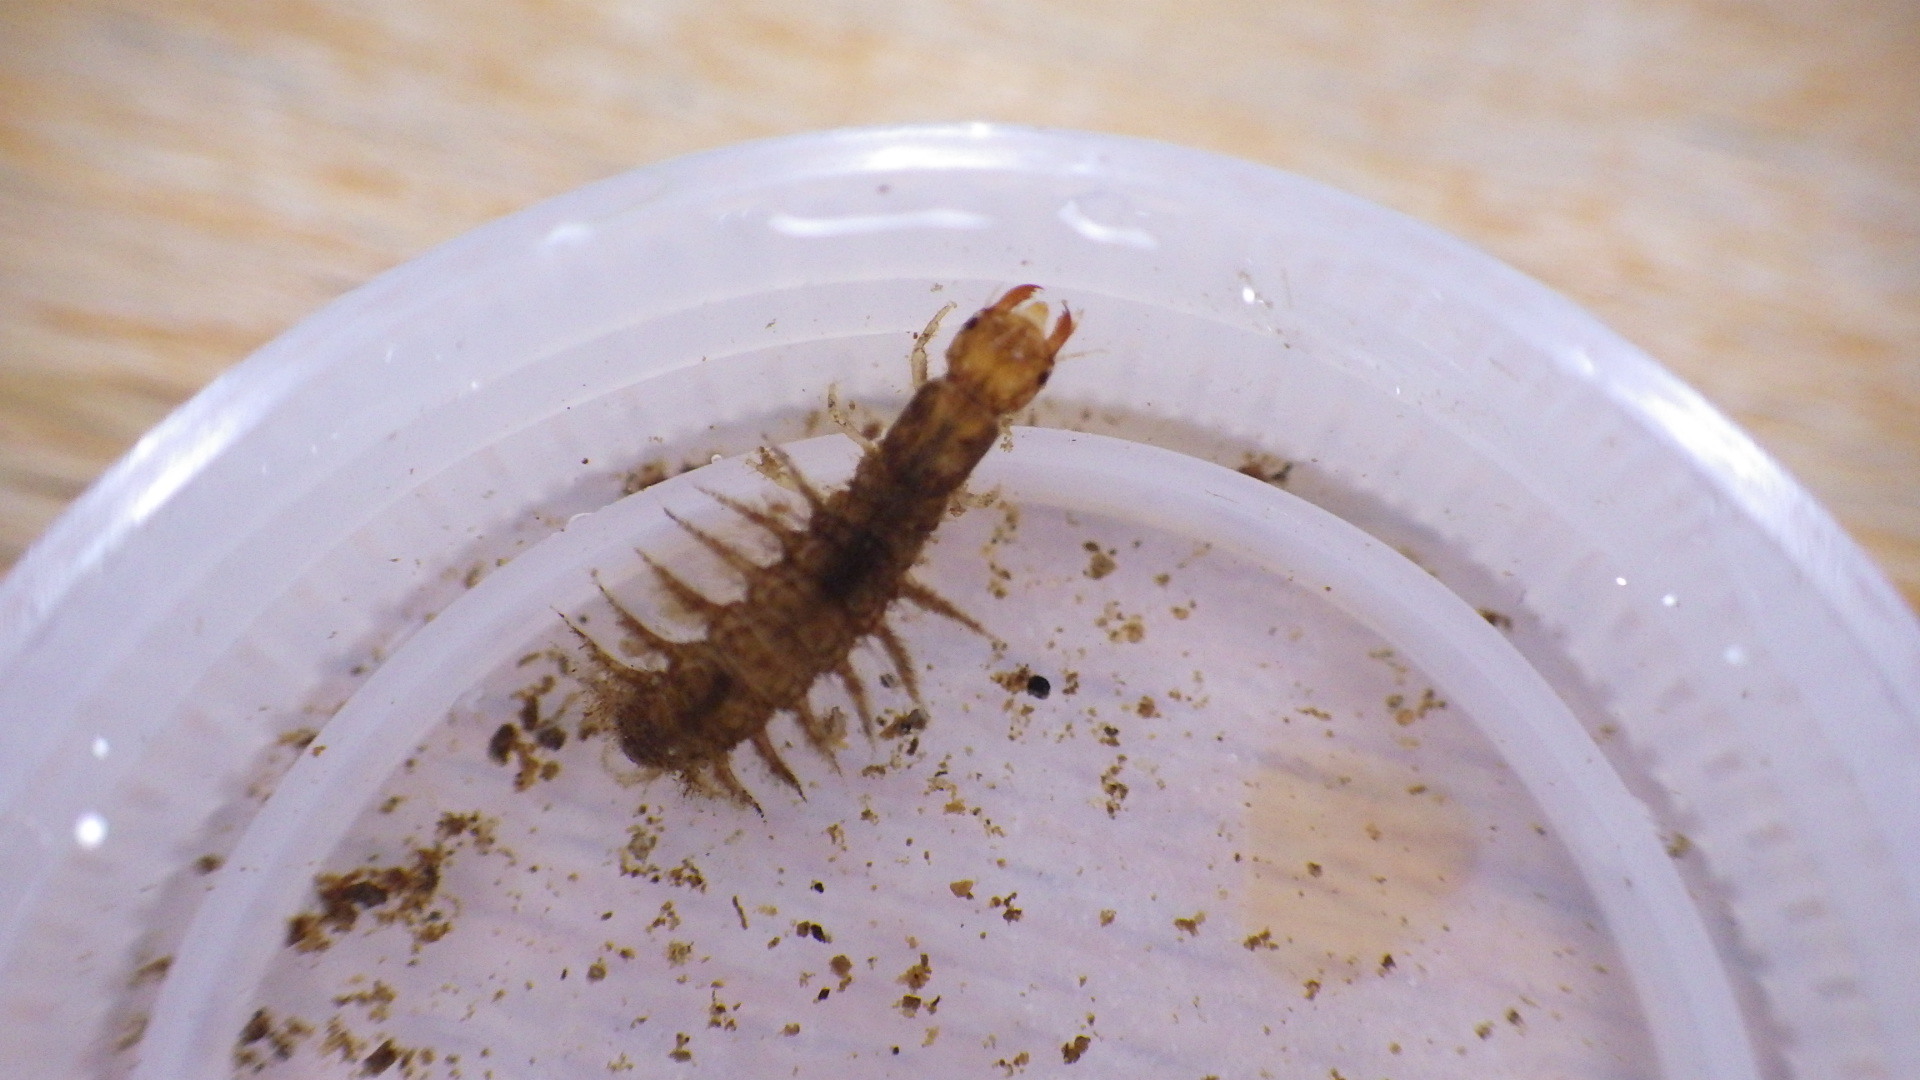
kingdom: Animalia
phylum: Arthropoda
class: Insecta
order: Megaloptera
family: Corydalidae
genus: Corydalus
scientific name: Corydalus cornutus
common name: Dobsonfly
